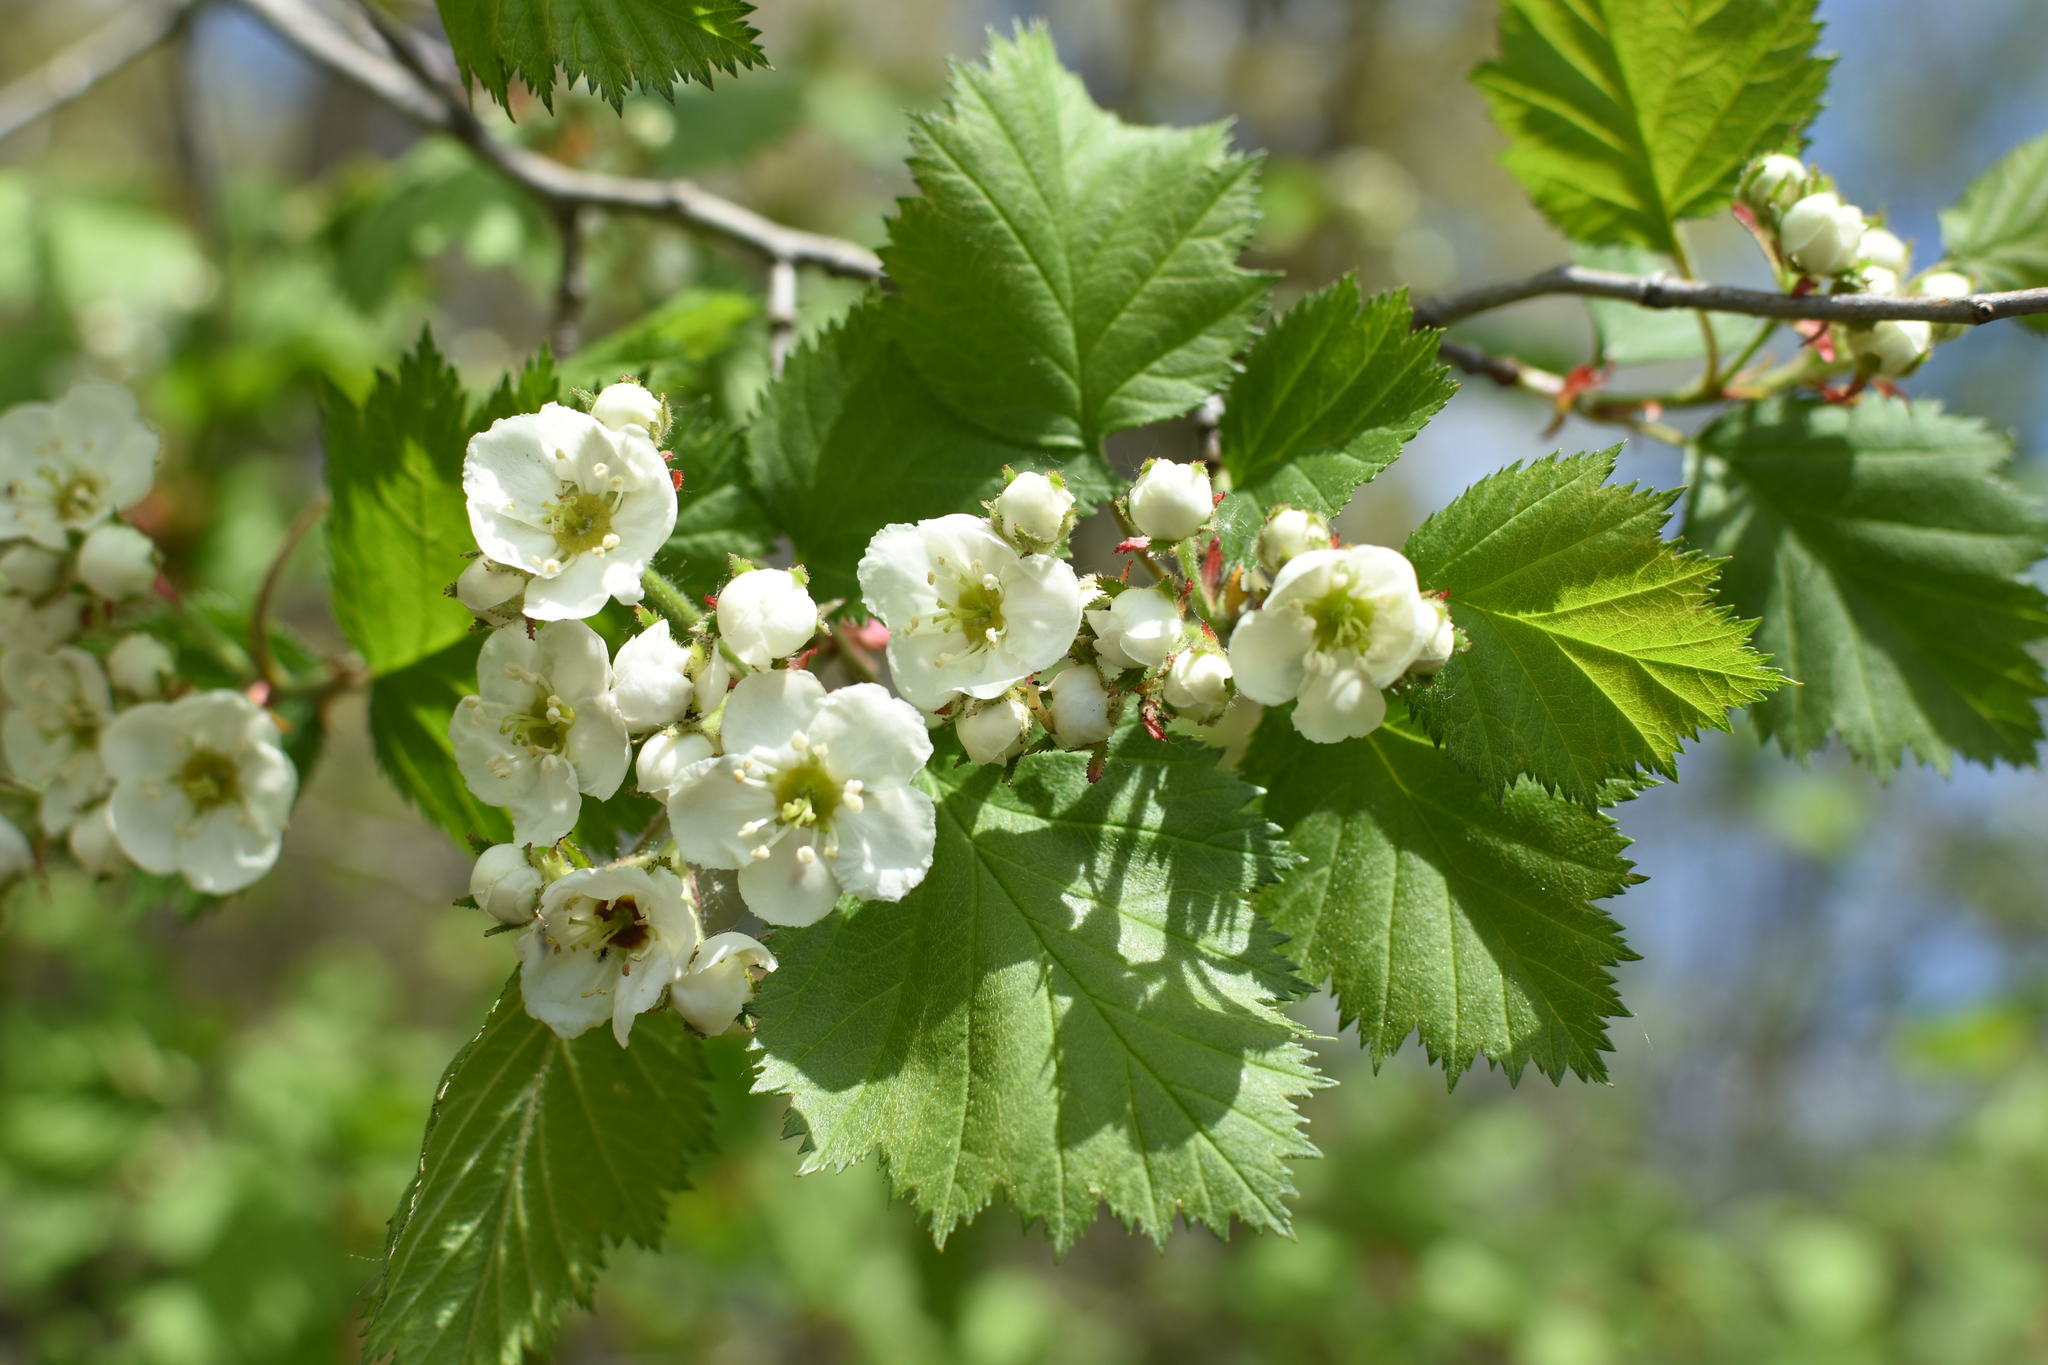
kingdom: Plantae
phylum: Tracheophyta
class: Magnoliopsida
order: Rosales
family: Rosaceae
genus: Crataegus
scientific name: Crataegus submollis
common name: Hairy cockspurthorn
